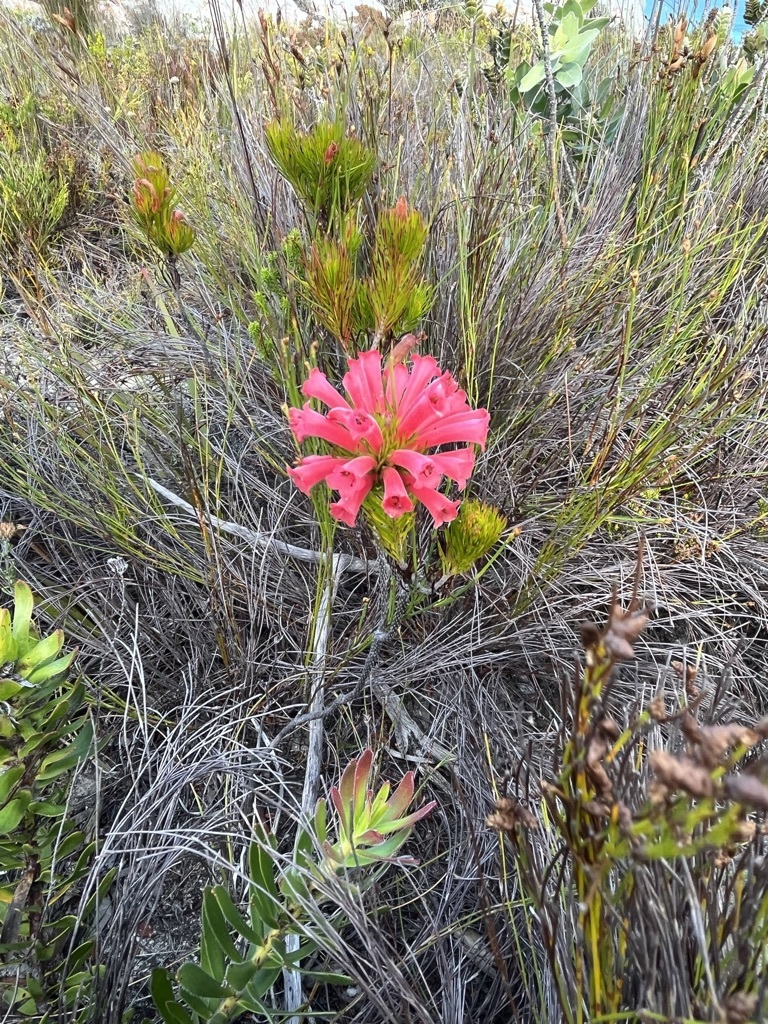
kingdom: Plantae
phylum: Tracheophyta
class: Magnoliopsida
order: Ericales
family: Ericaceae
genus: Erica
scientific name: Erica vestita
